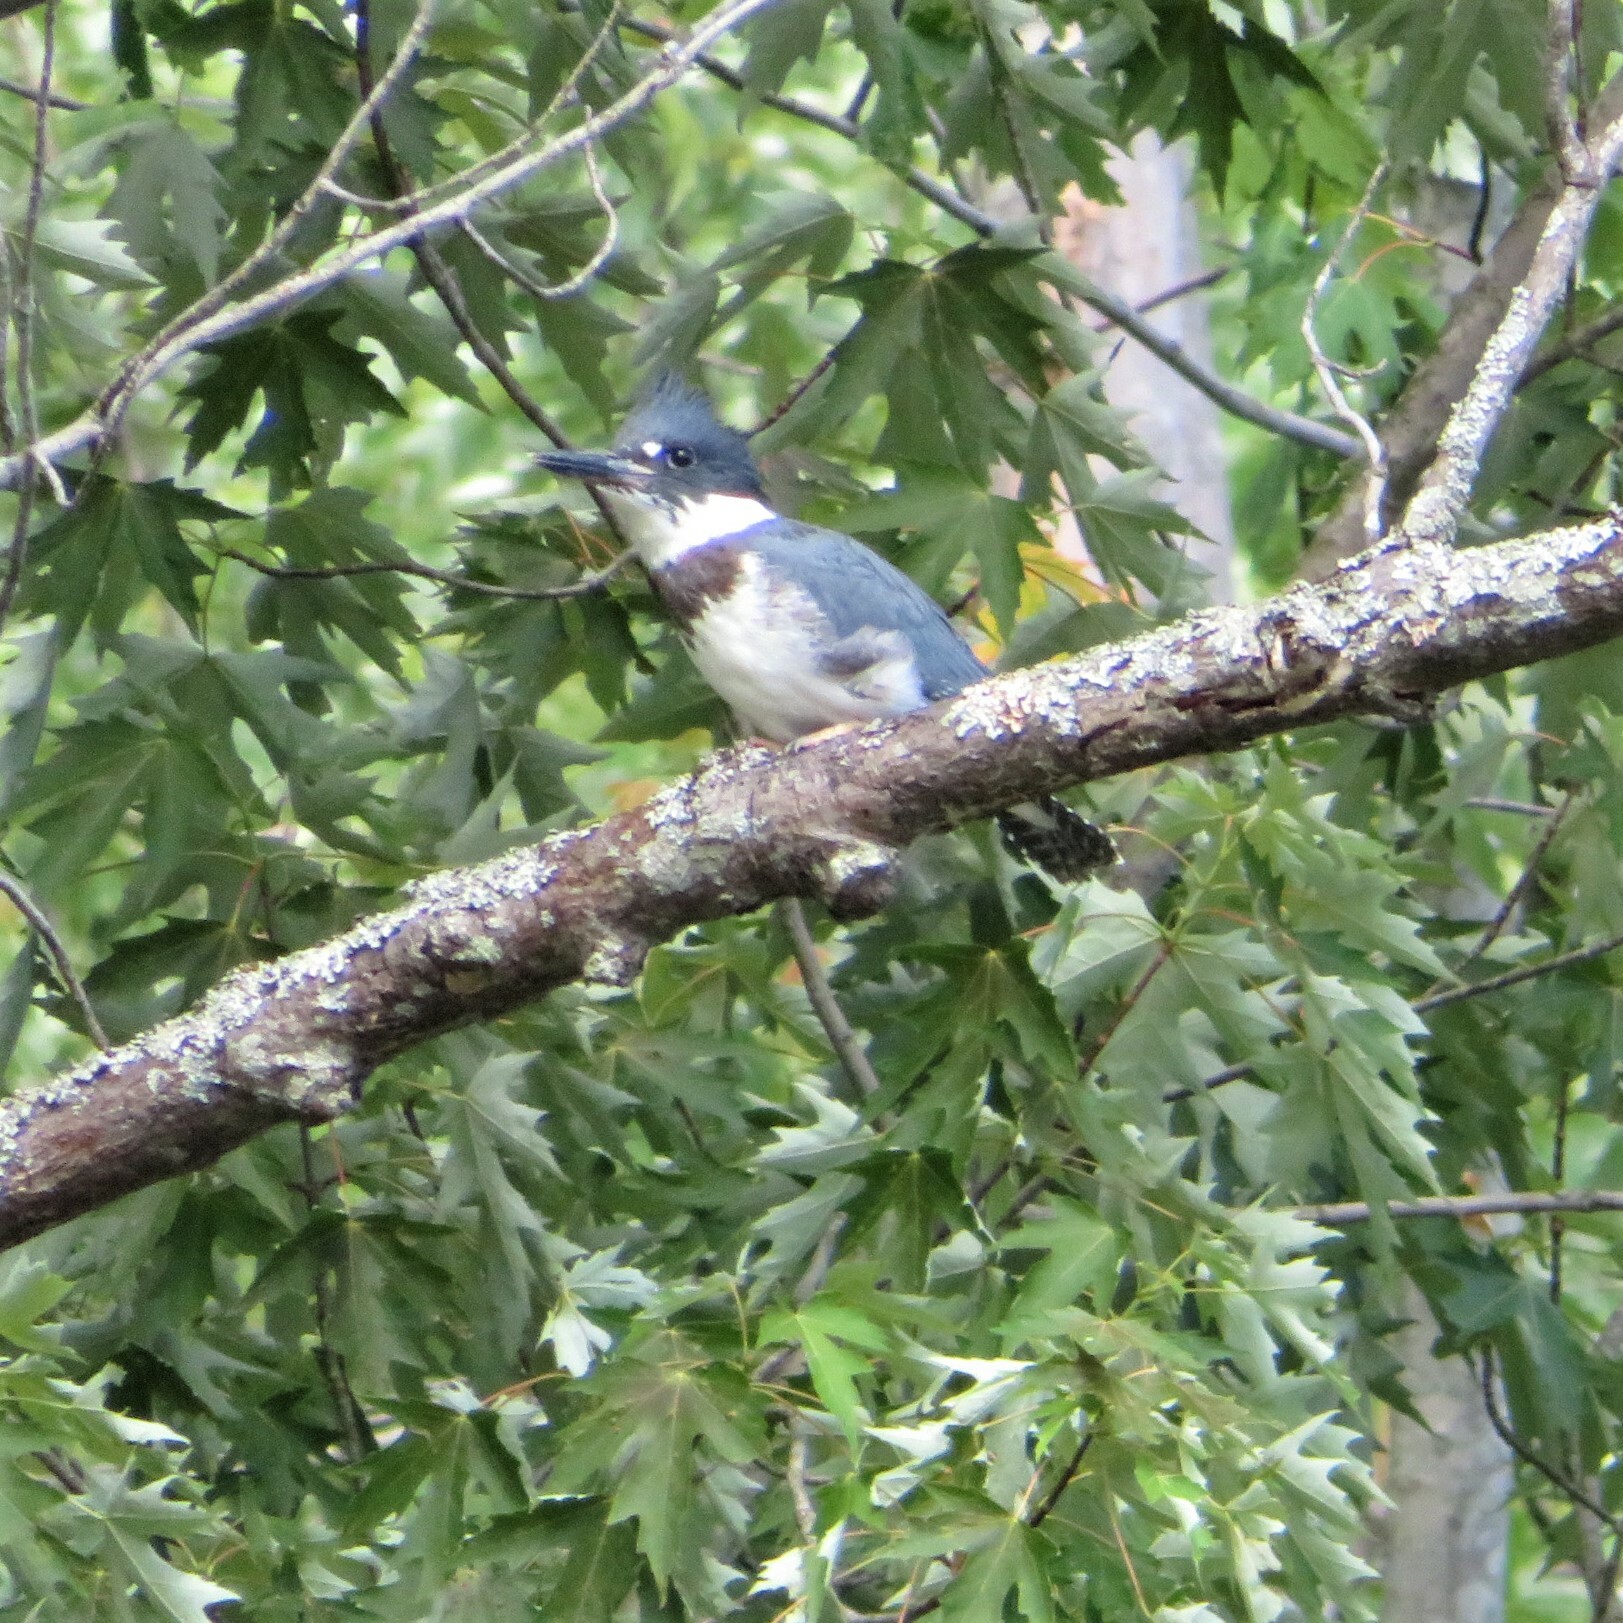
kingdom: Animalia
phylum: Chordata
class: Aves
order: Coraciiformes
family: Alcedinidae
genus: Megaceryle
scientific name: Megaceryle alcyon
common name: Belted kingfisher
